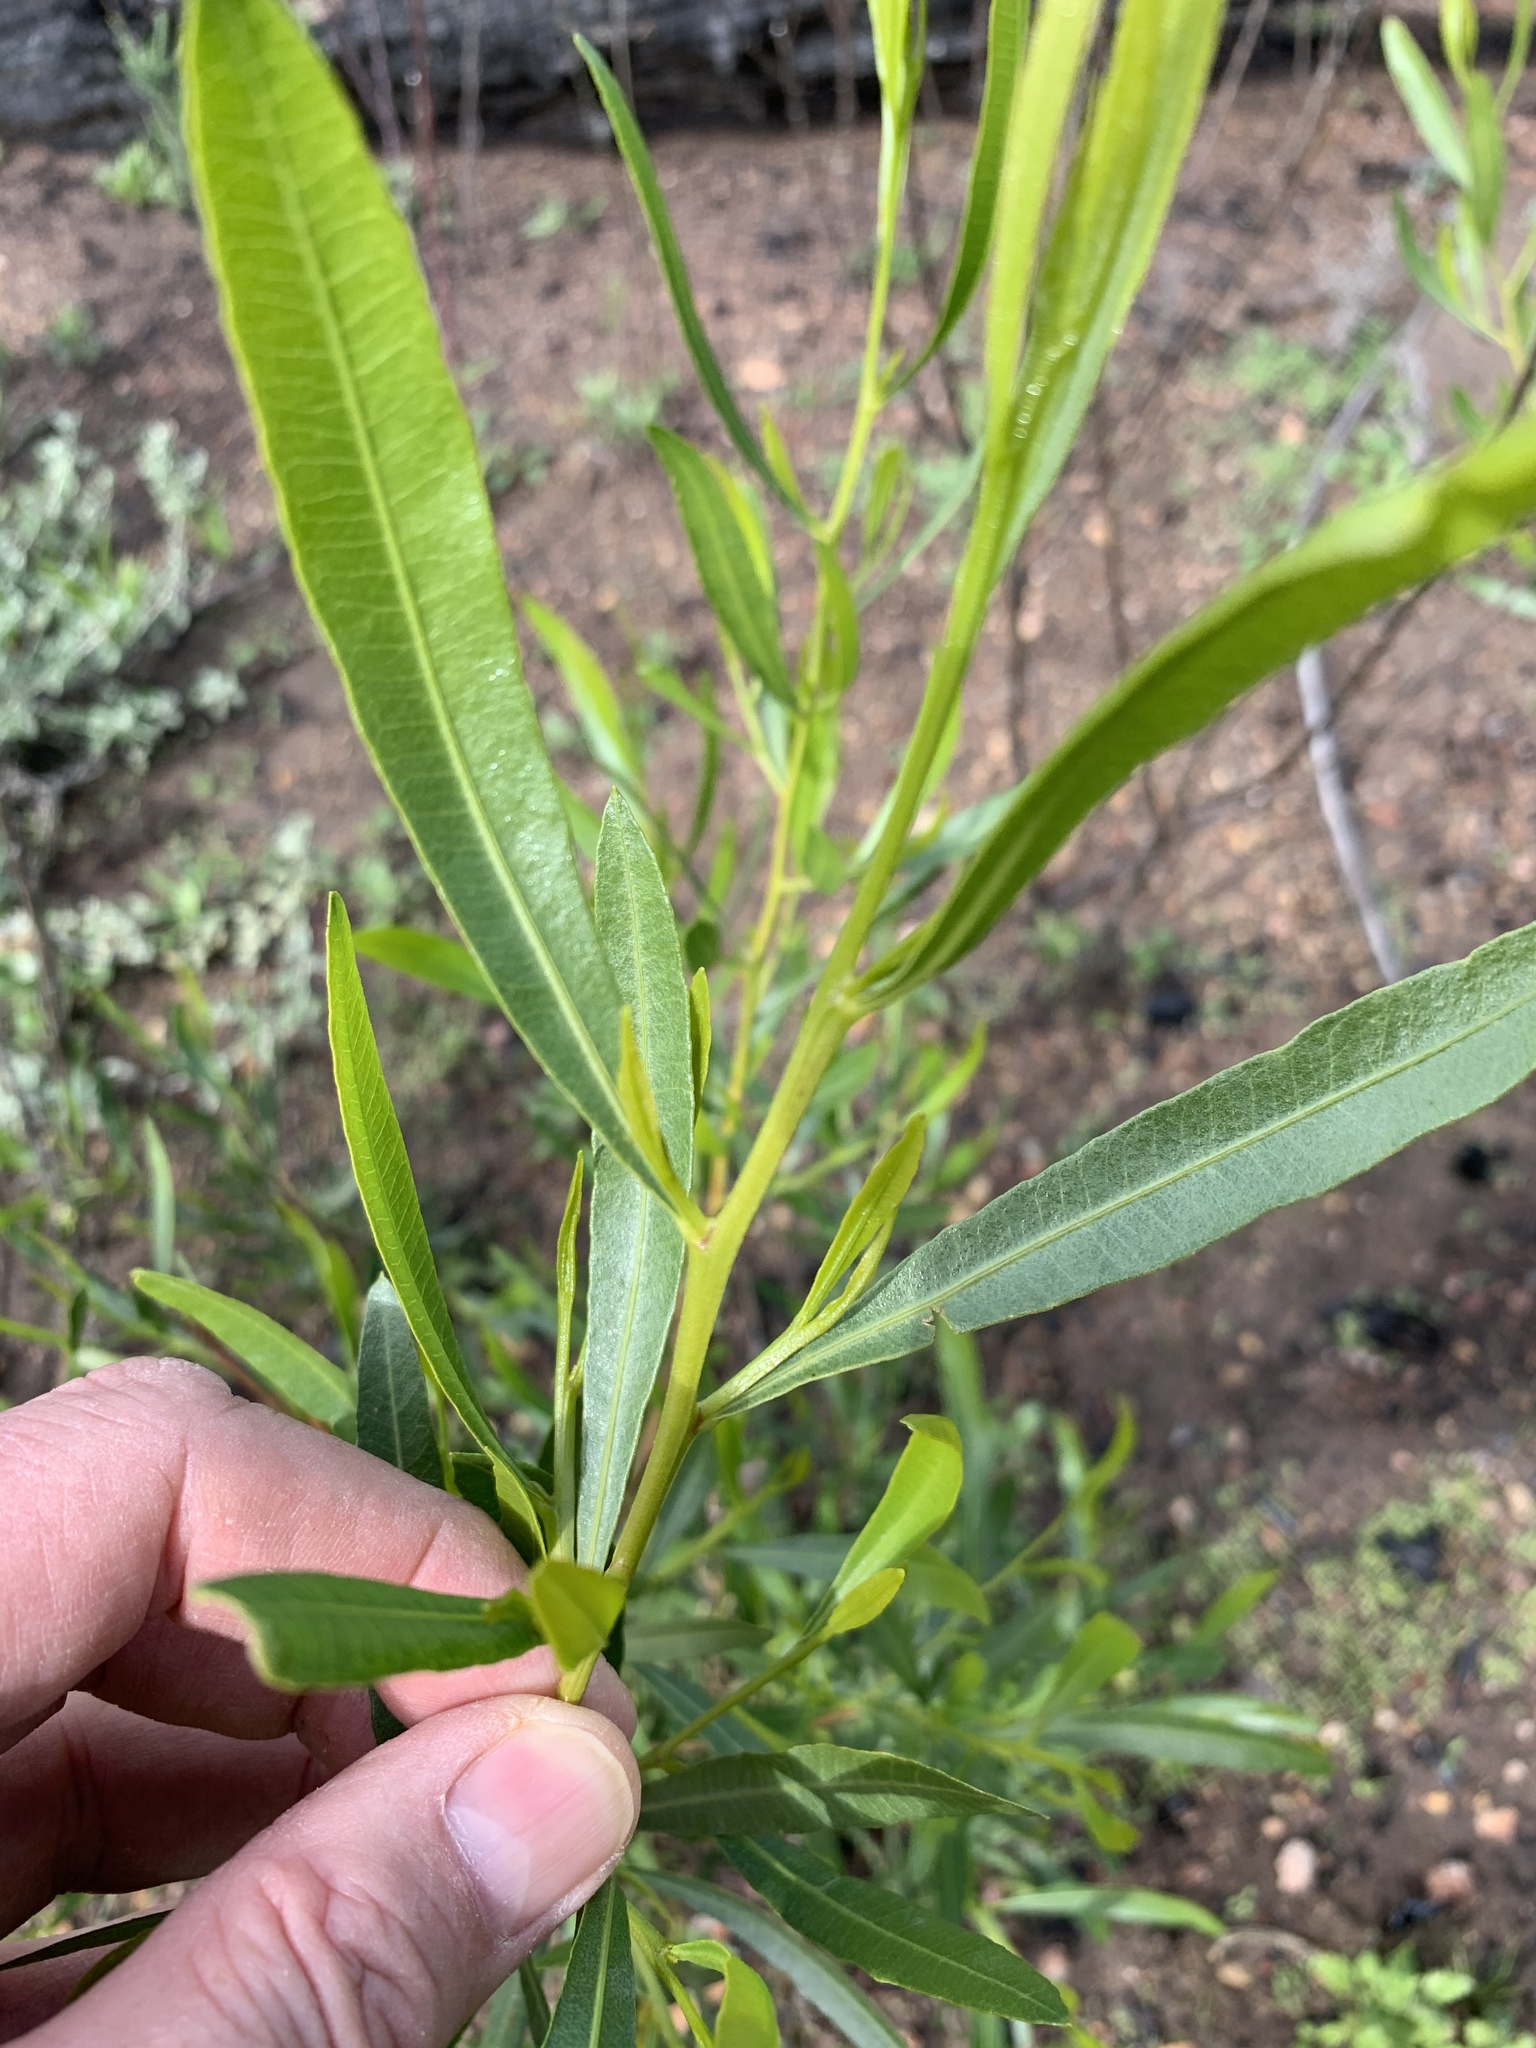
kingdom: Plantae
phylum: Tracheophyta
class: Magnoliopsida
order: Sapindales
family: Sapindaceae
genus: Dodonaea
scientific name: Dodonaea viscosa
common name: Hopbush
